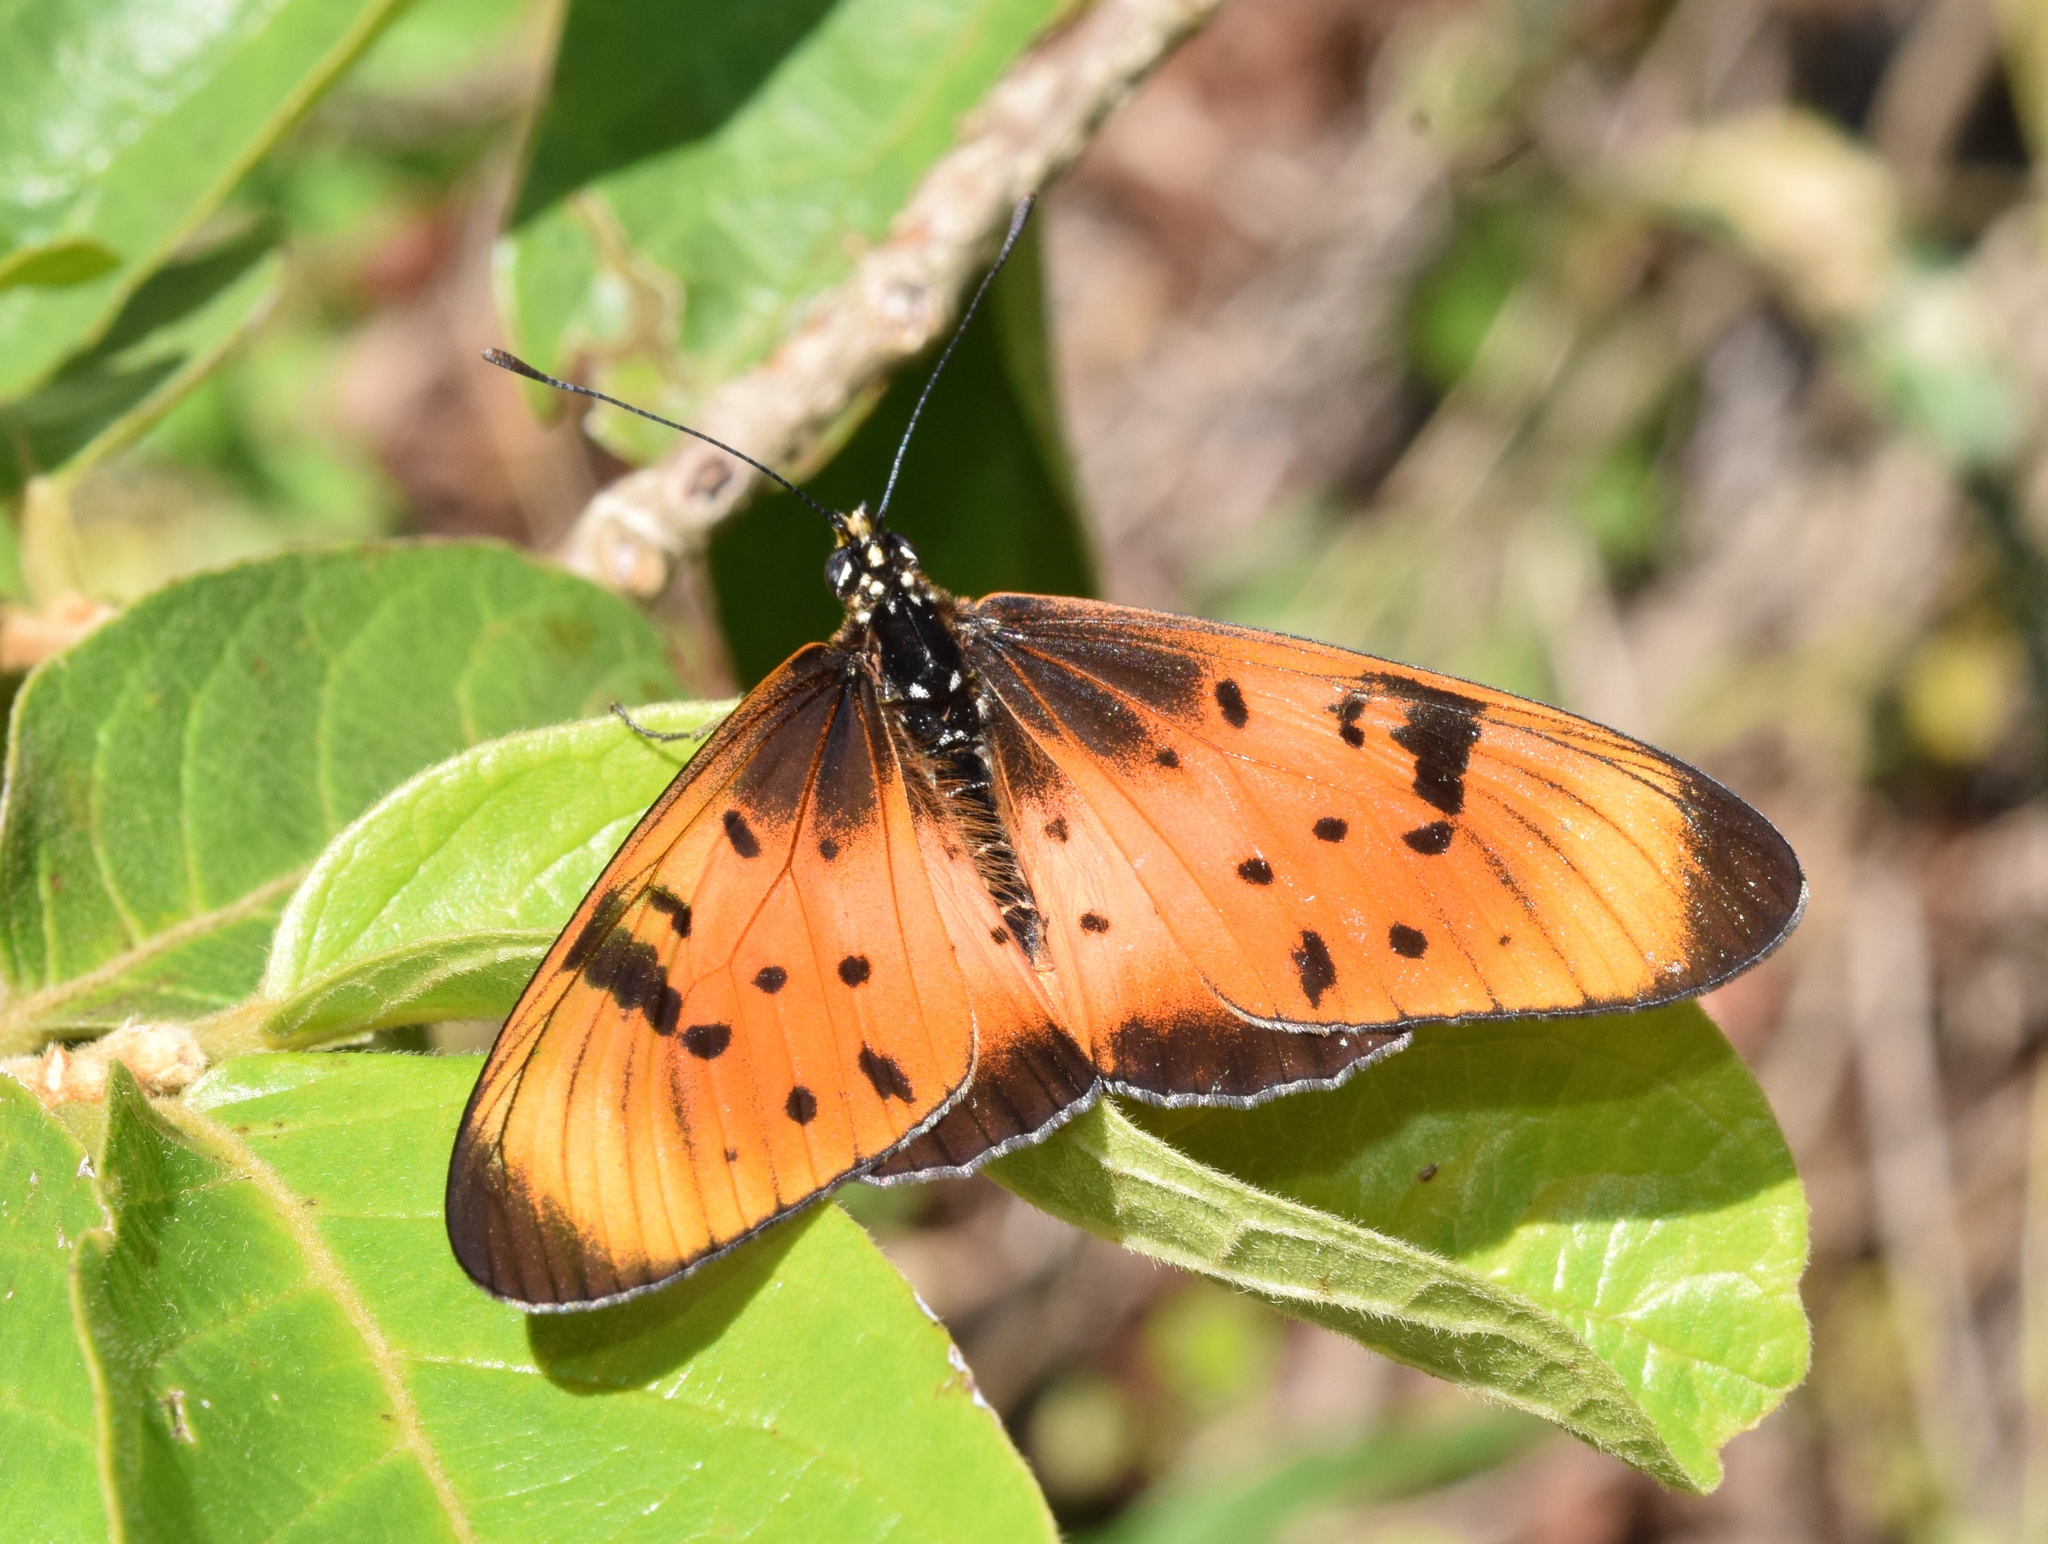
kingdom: Animalia
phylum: Arthropoda
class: Insecta
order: Lepidoptera
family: Nymphalidae
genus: Stephenia
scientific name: Stephenia
